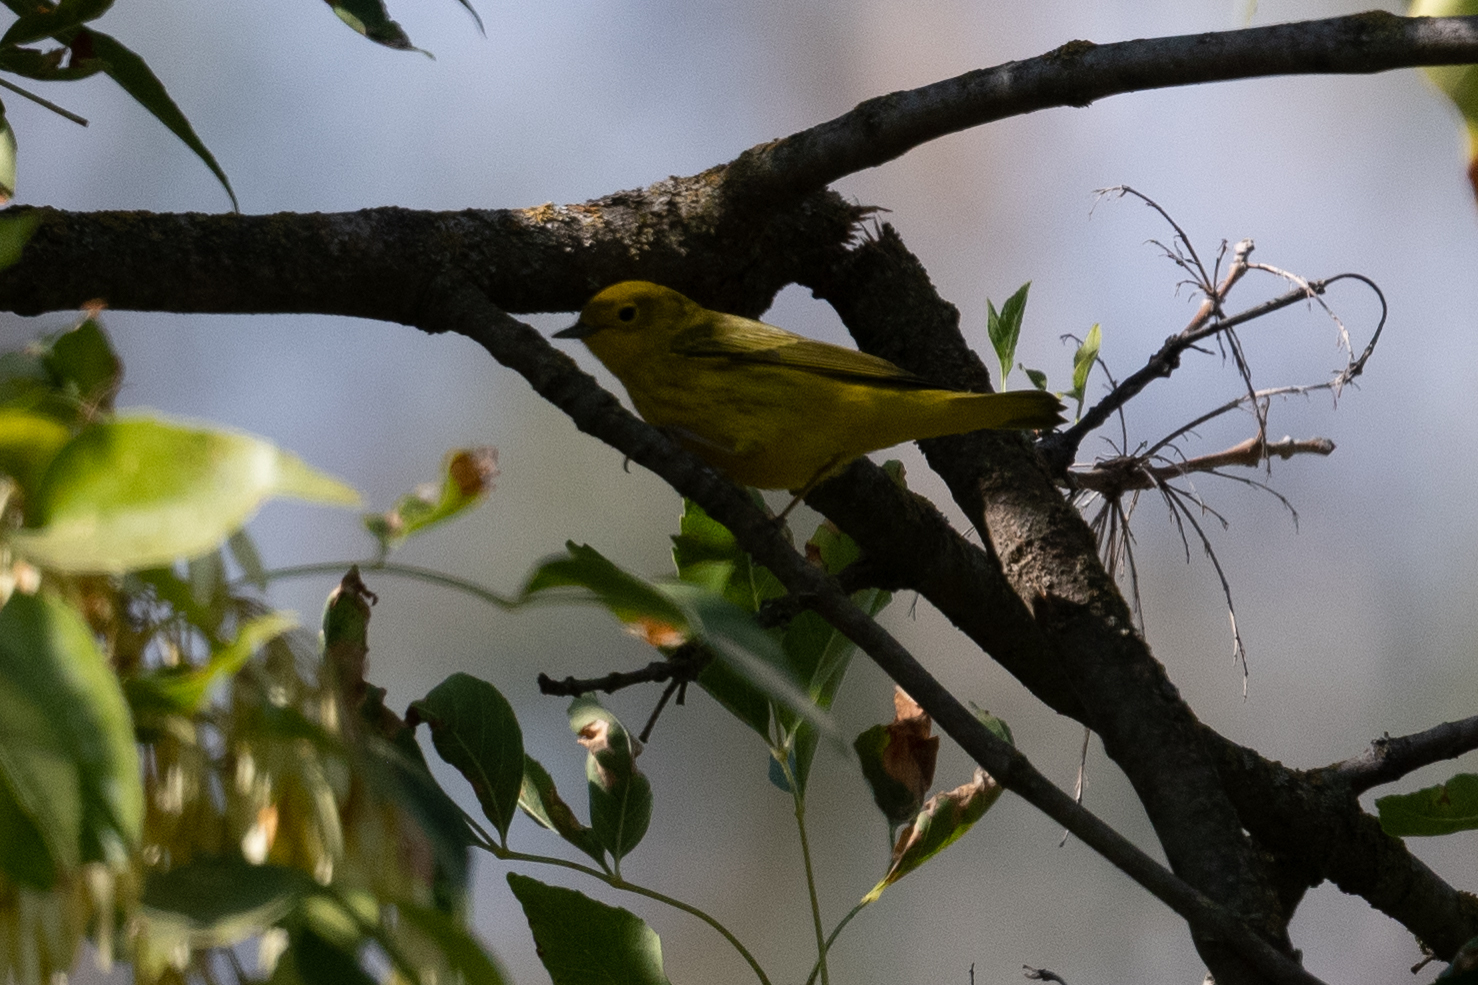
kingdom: Animalia
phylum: Chordata
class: Aves
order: Passeriformes
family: Parulidae
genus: Setophaga
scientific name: Setophaga petechia
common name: Yellow warbler
